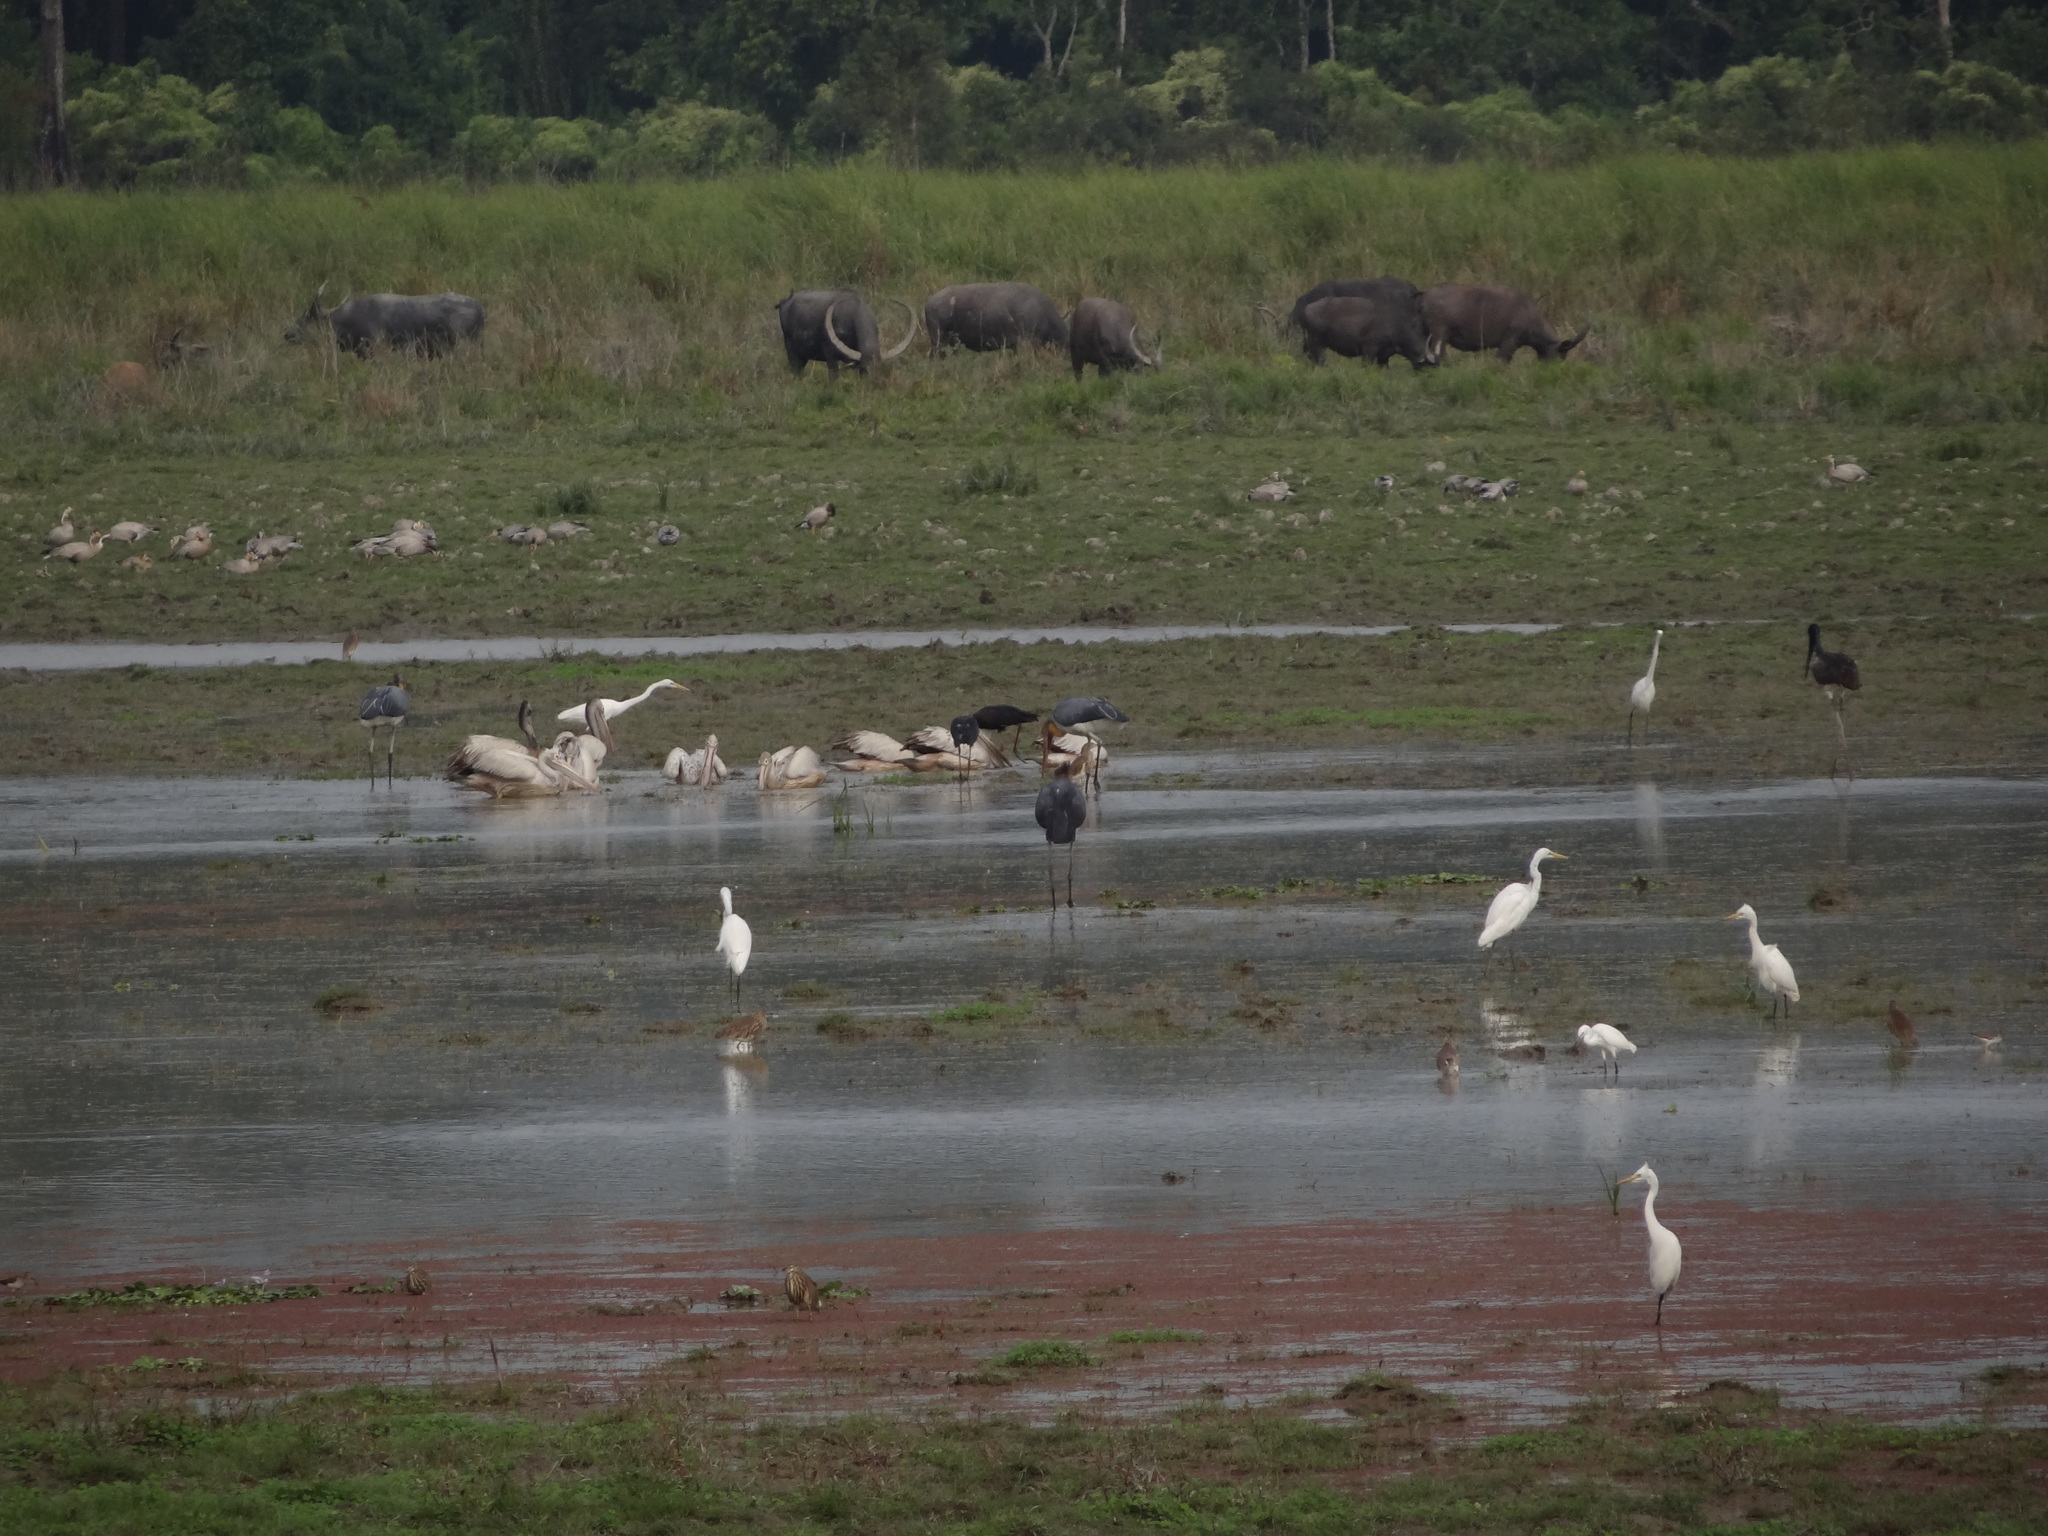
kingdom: Animalia
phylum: Chordata
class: Aves
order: Pelecaniformes
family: Pelecanidae
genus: Pelecanus
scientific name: Pelecanus philippensis
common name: Spot-billed pelican
